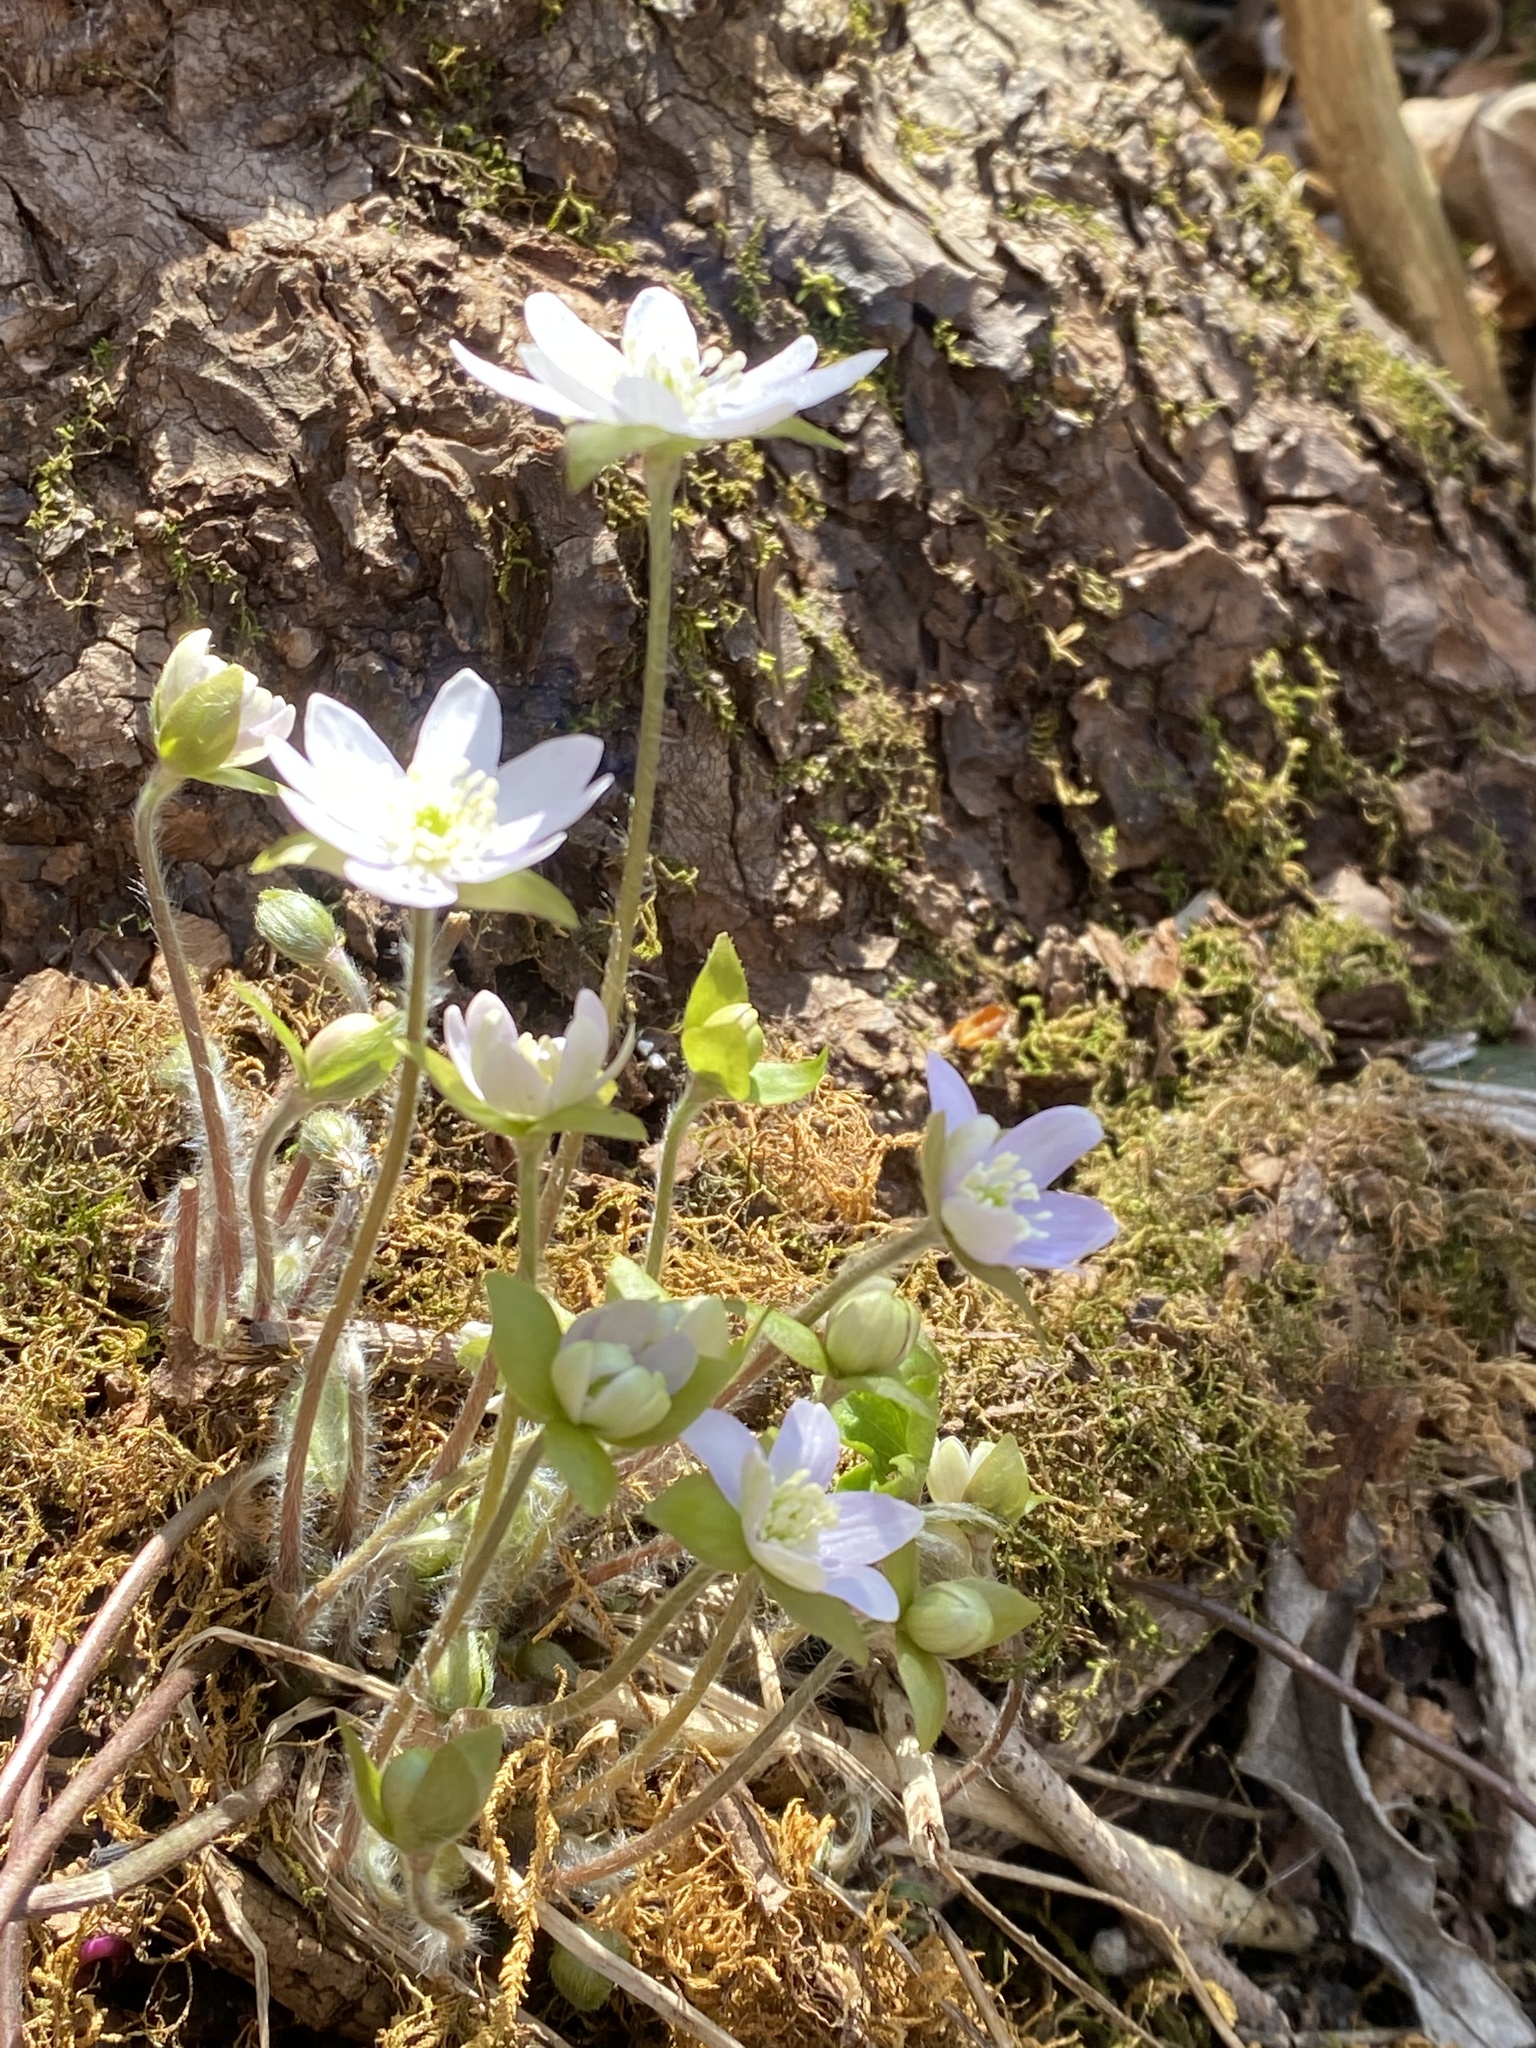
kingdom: Plantae
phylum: Tracheophyta
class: Magnoliopsida
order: Ranunculales
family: Ranunculaceae
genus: Hepatica
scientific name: Hepatica acutiloba
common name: Sharp-lobed hepatica
